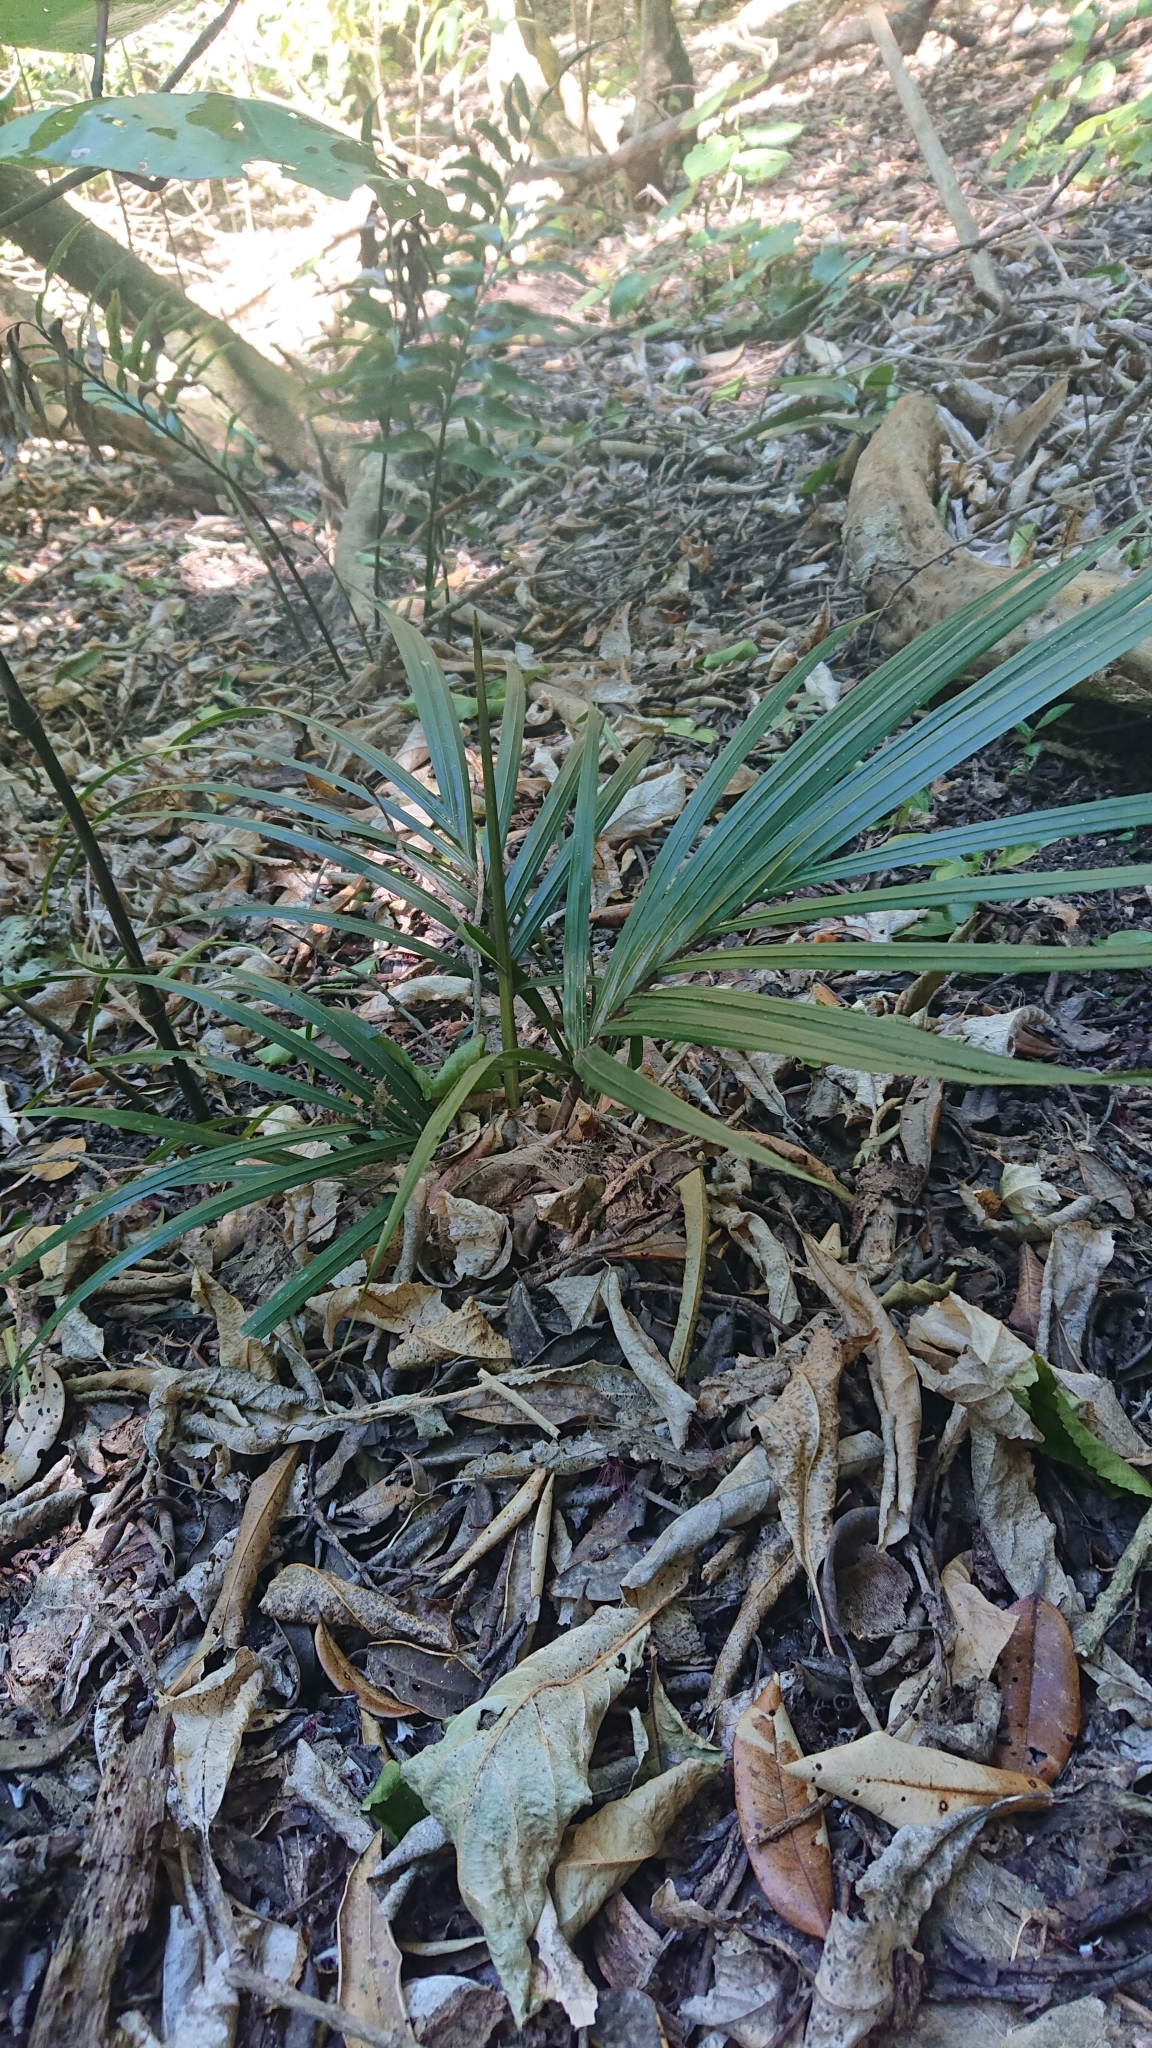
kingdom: Plantae
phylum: Tracheophyta
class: Liliopsida
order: Arecales
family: Arecaceae
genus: Rhopalostylis
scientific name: Rhopalostylis sapida
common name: Feather-duster palm
